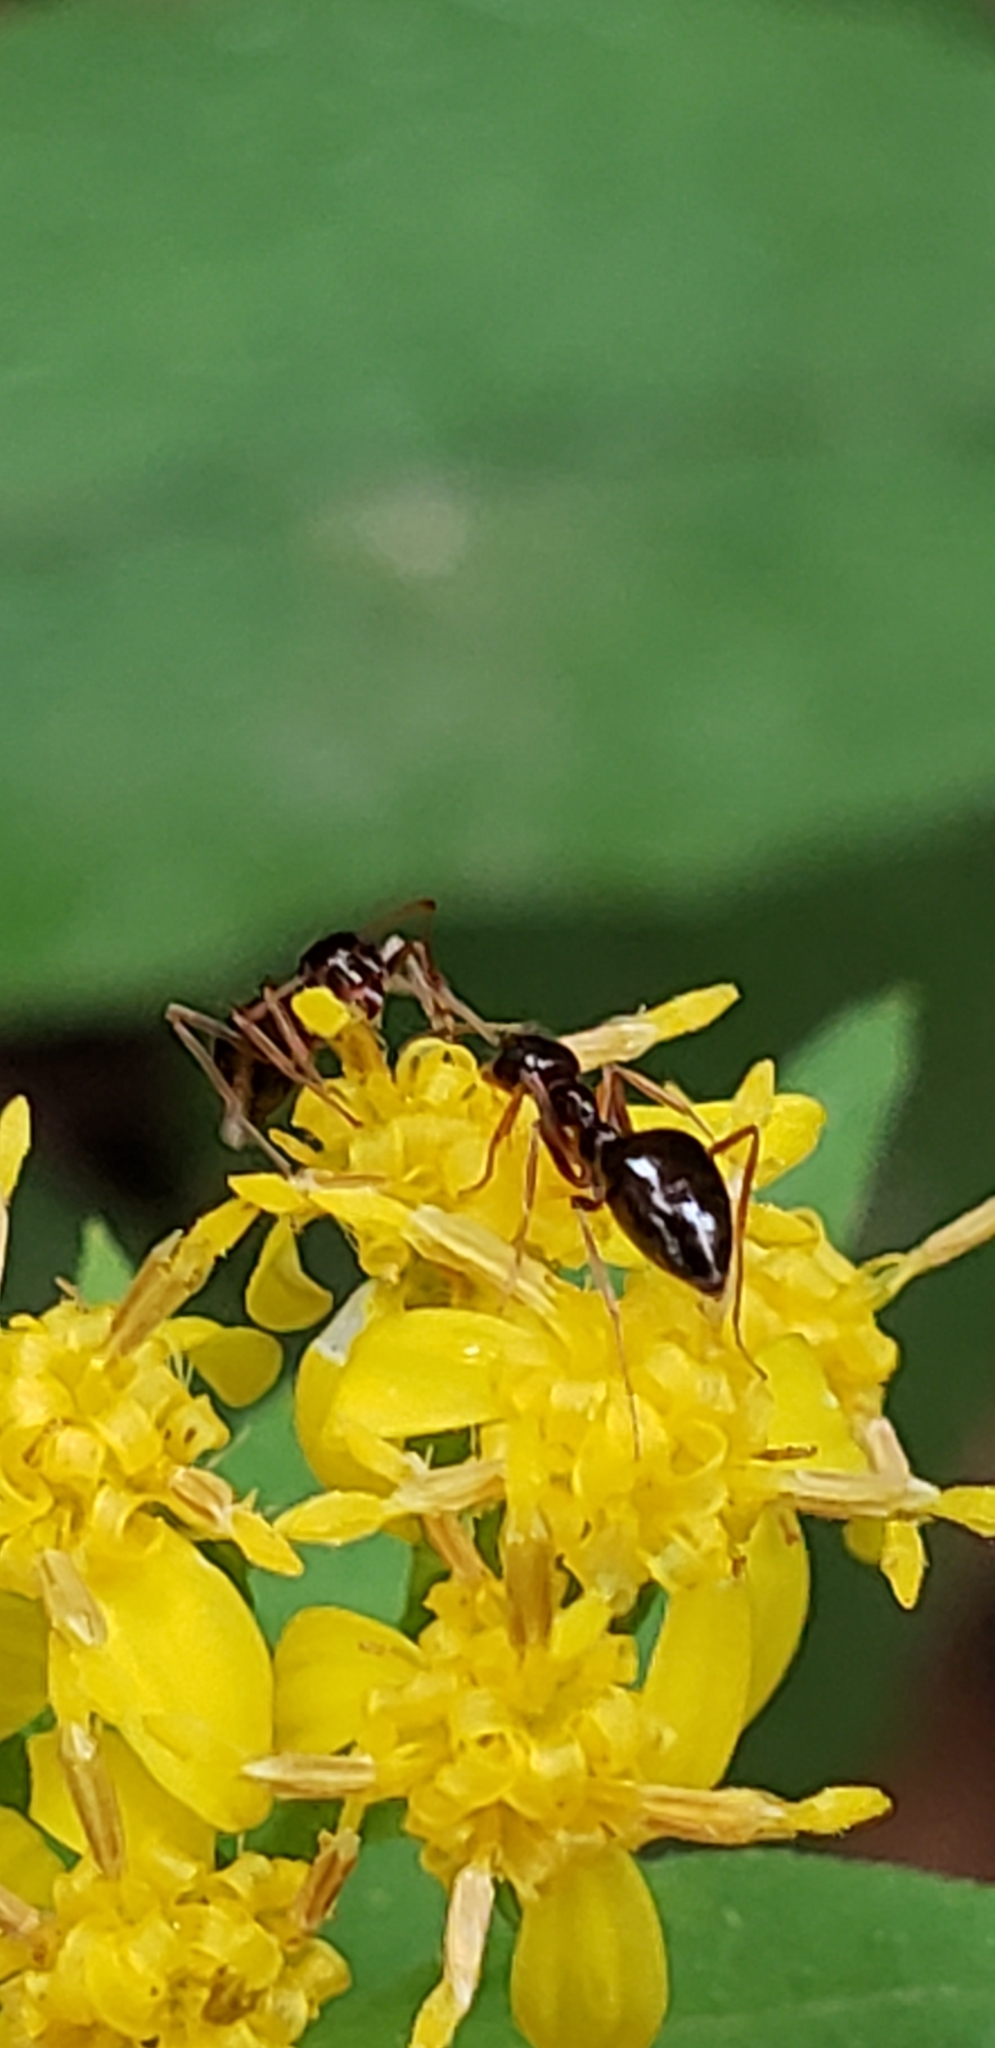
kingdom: Animalia
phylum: Arthropoda
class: Insecta
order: Hymenoptera
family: Formicidae
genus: Prenolepis
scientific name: Prenolepis imparis
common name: Small honey ant
